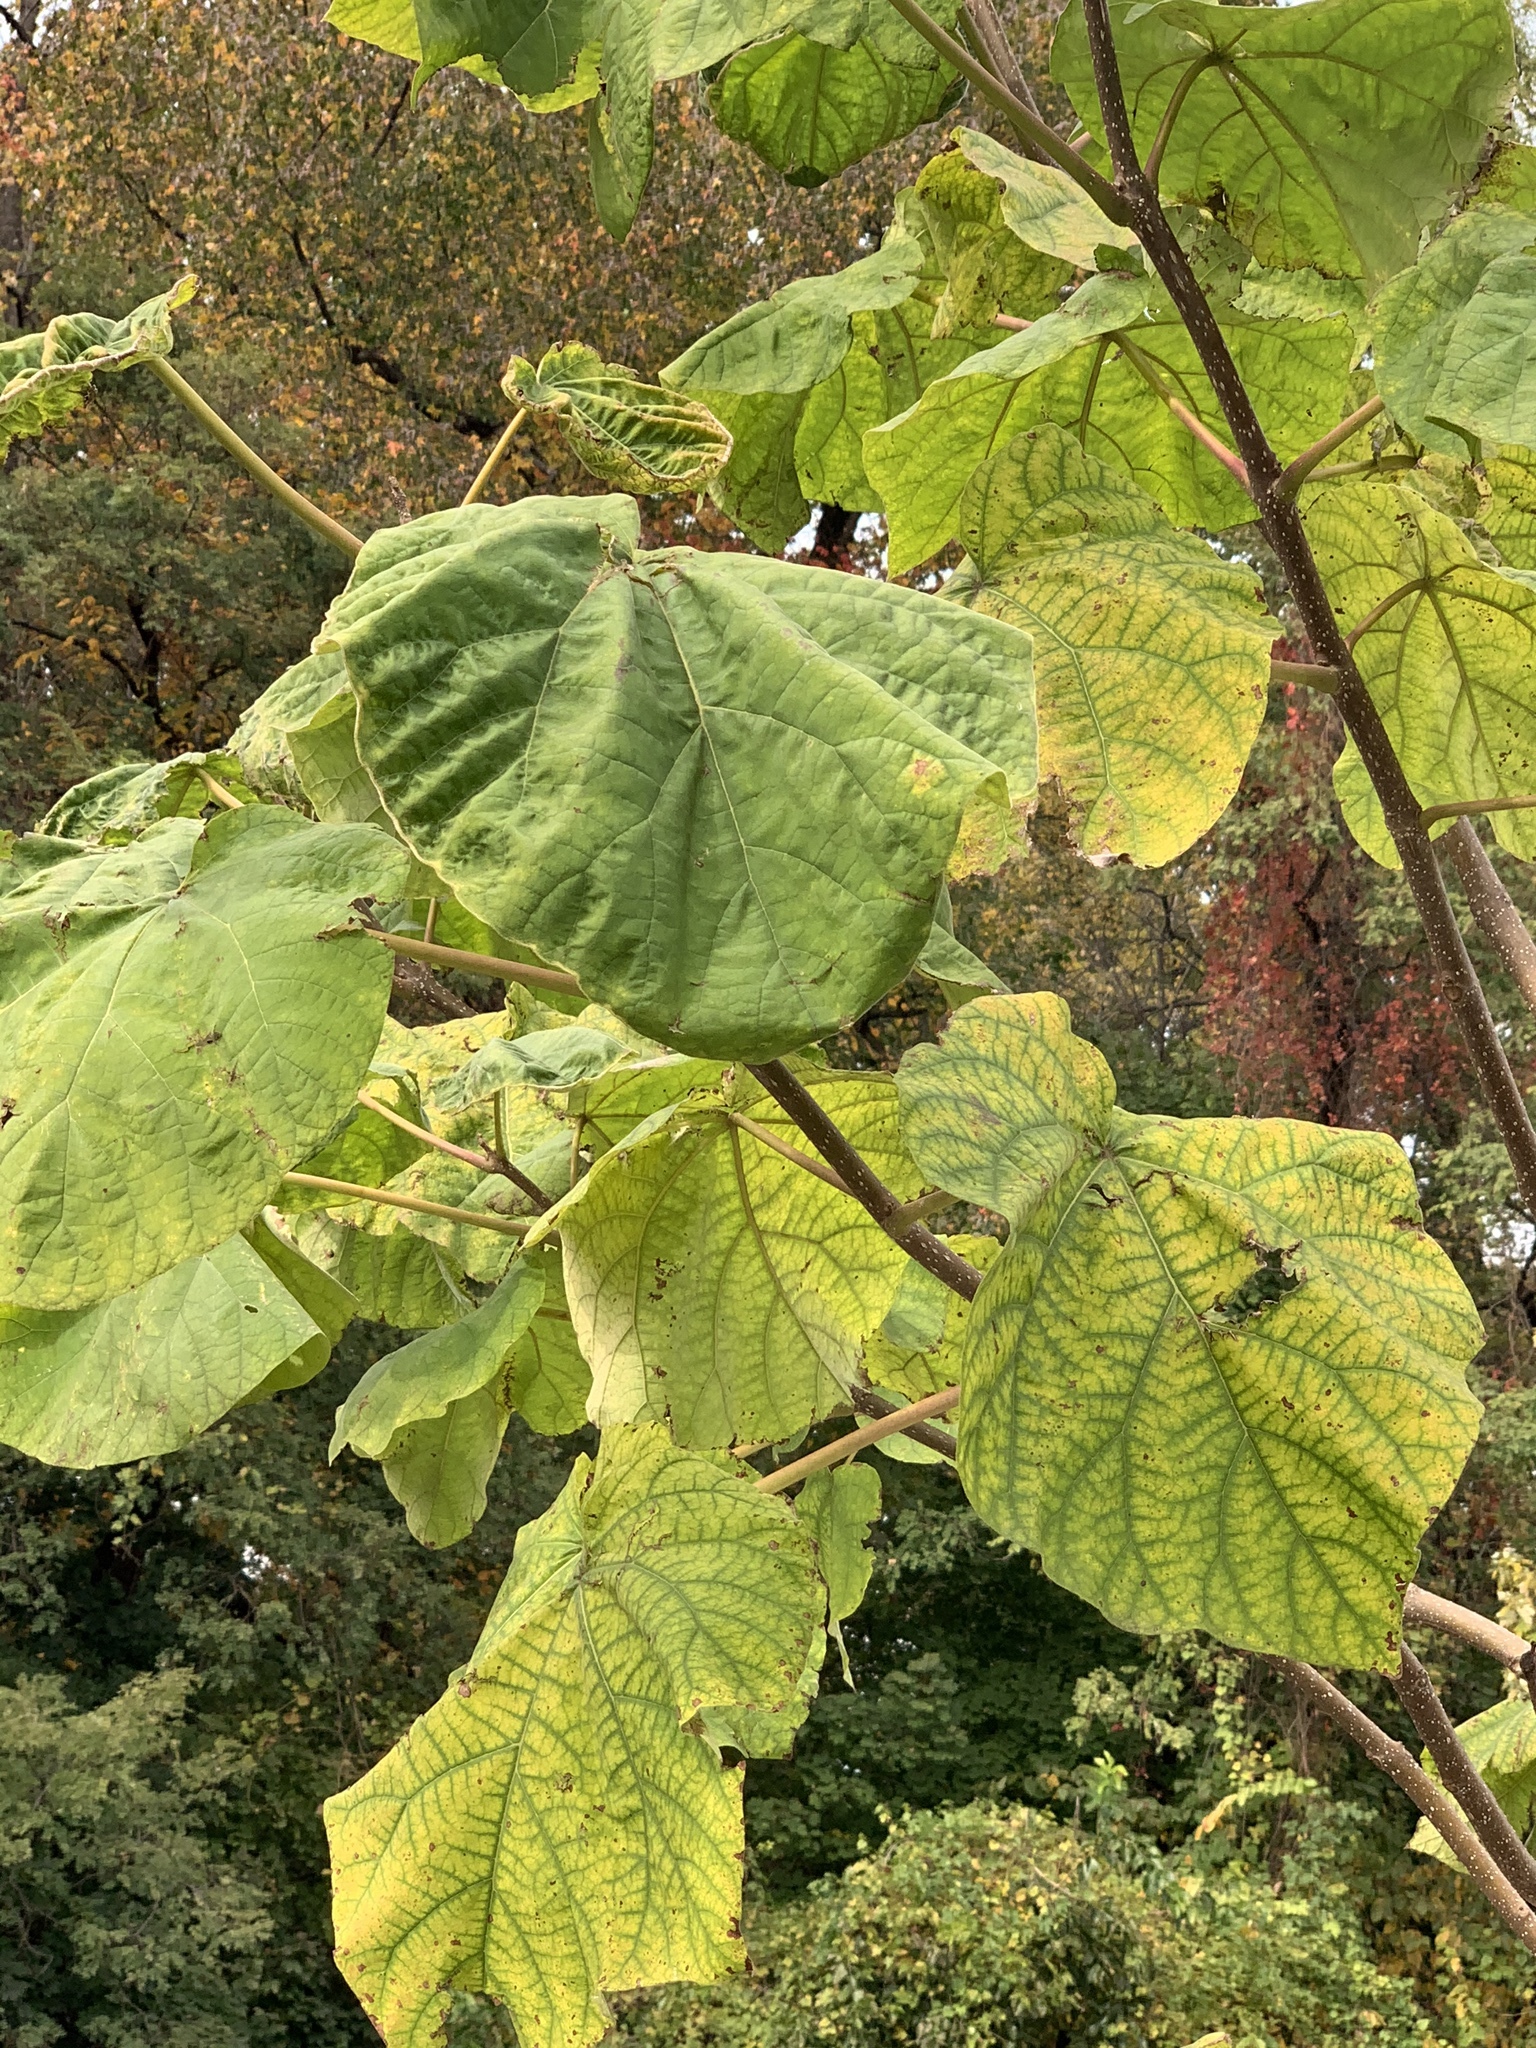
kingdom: Plantae
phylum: Tracheophyta
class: Magnoliopsida
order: Lamiales
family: Paulowniaceae
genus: Paulownia
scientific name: Paulownia tomentosa
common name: Foxglove-tree
